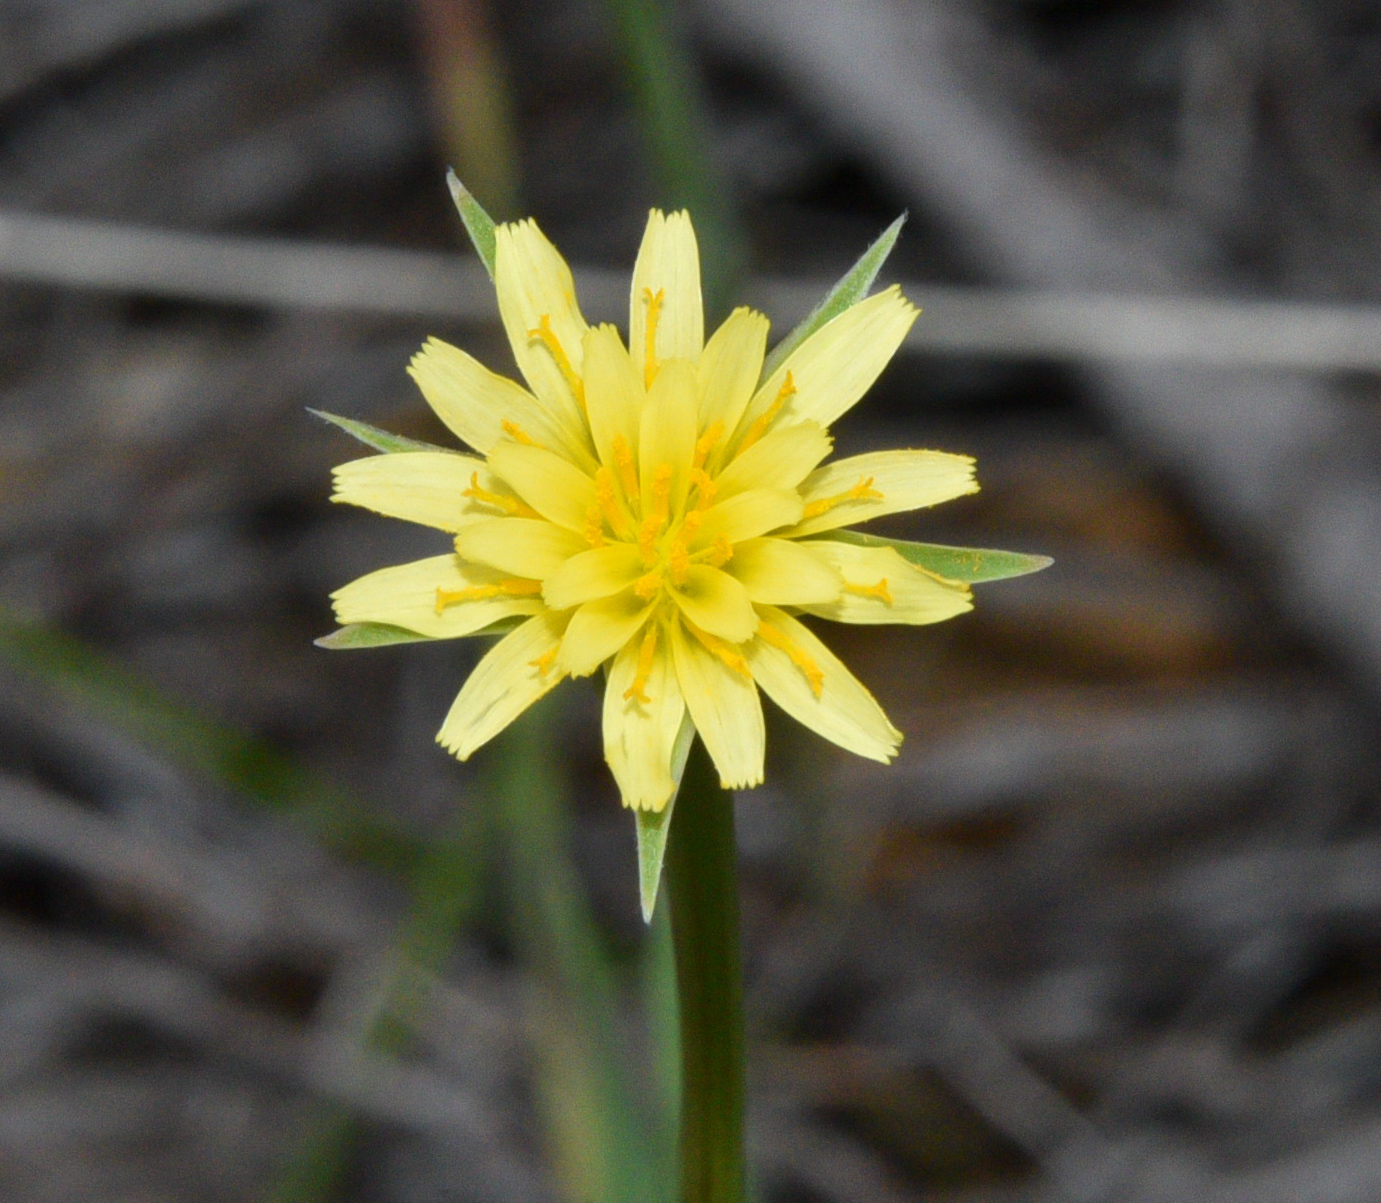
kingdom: Plantae
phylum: Tracheophyta
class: Magnoliopsida
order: Asterales
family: Asteraceae
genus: Microseris
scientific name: Microseris lindleyi
